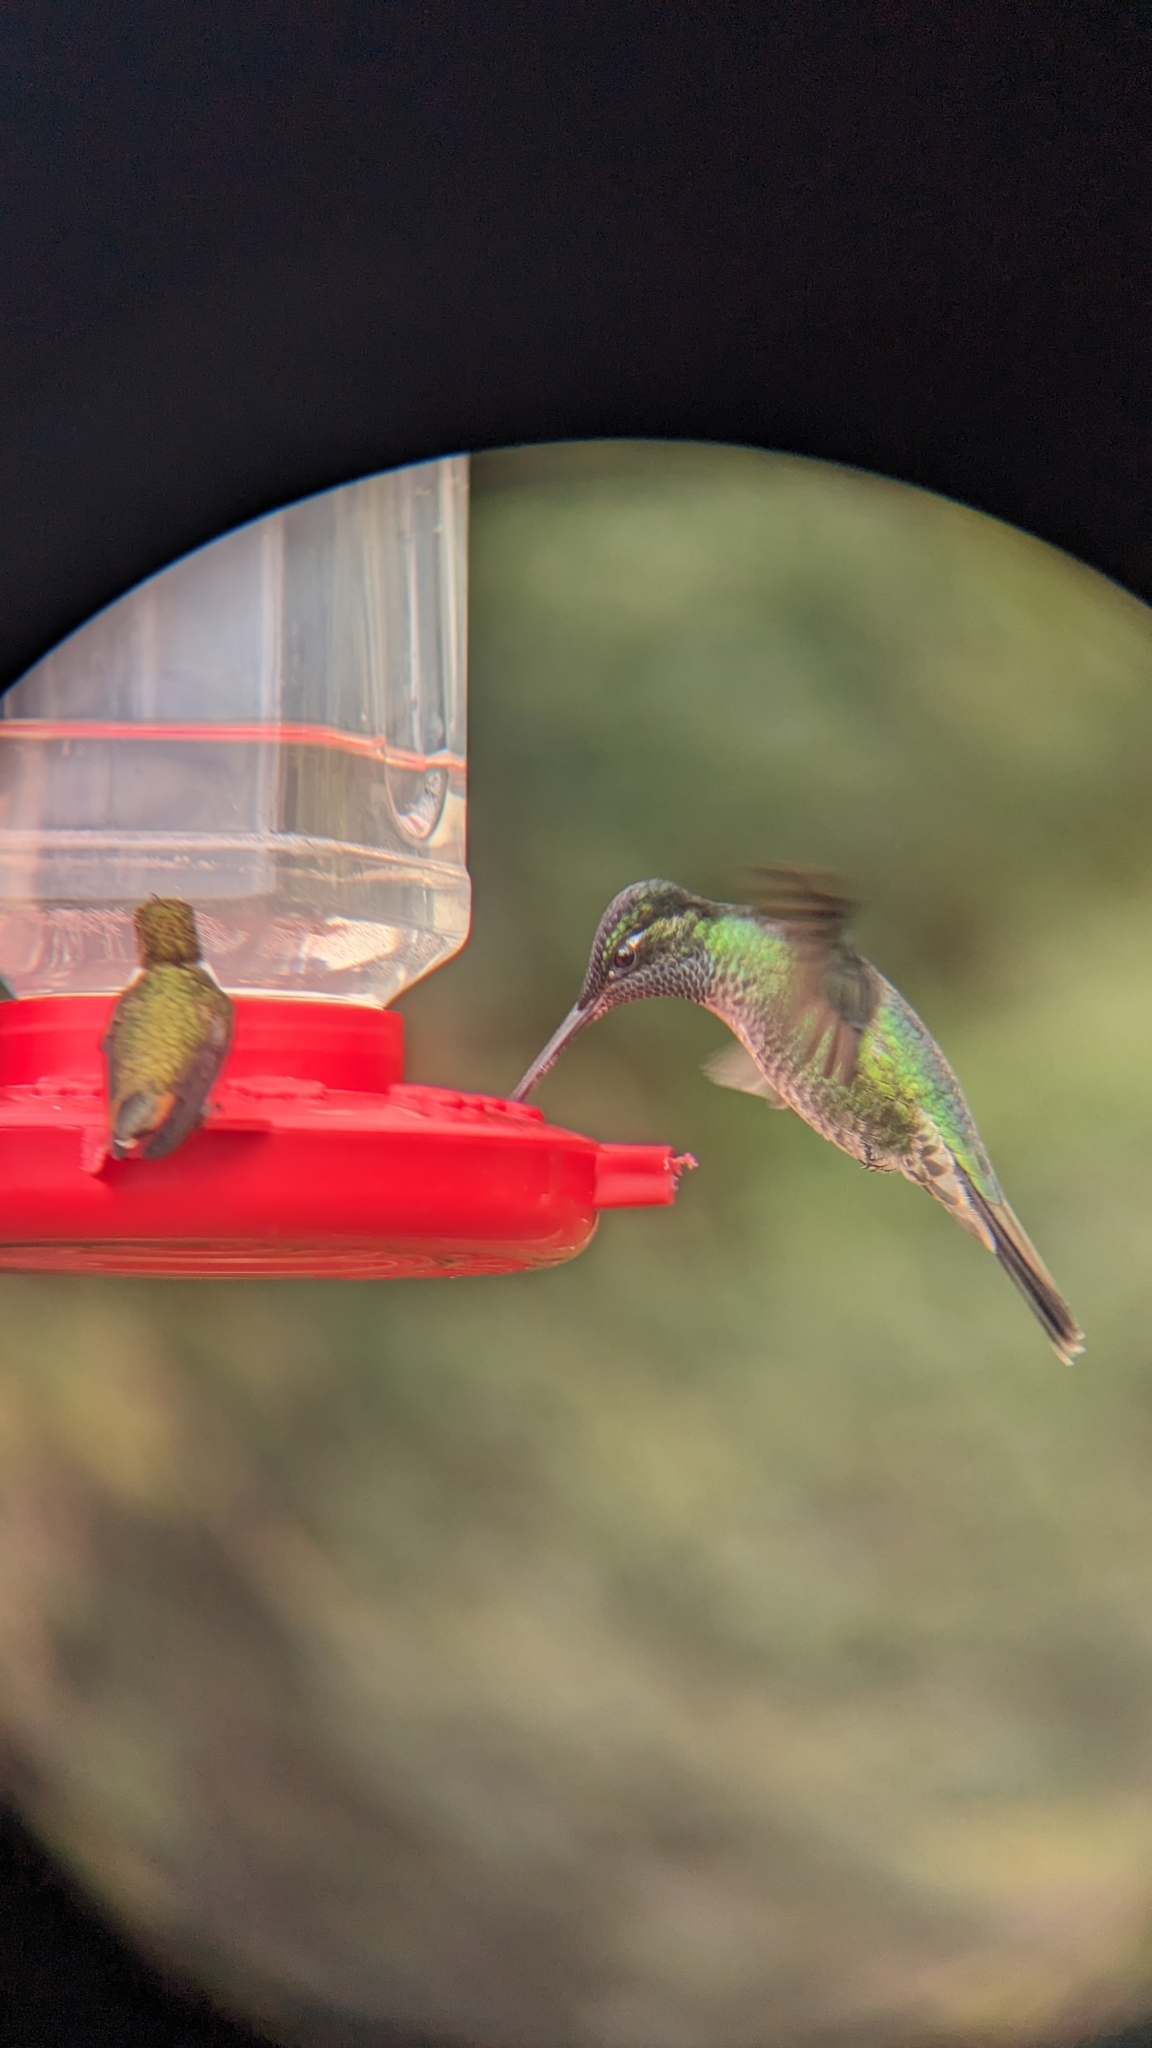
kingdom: Animalia
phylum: Chordata
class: Aves
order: Apodiformes
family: Trochilidae
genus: Eugenes
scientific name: Eugenes spectabilis
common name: Talamanca hummingbird
